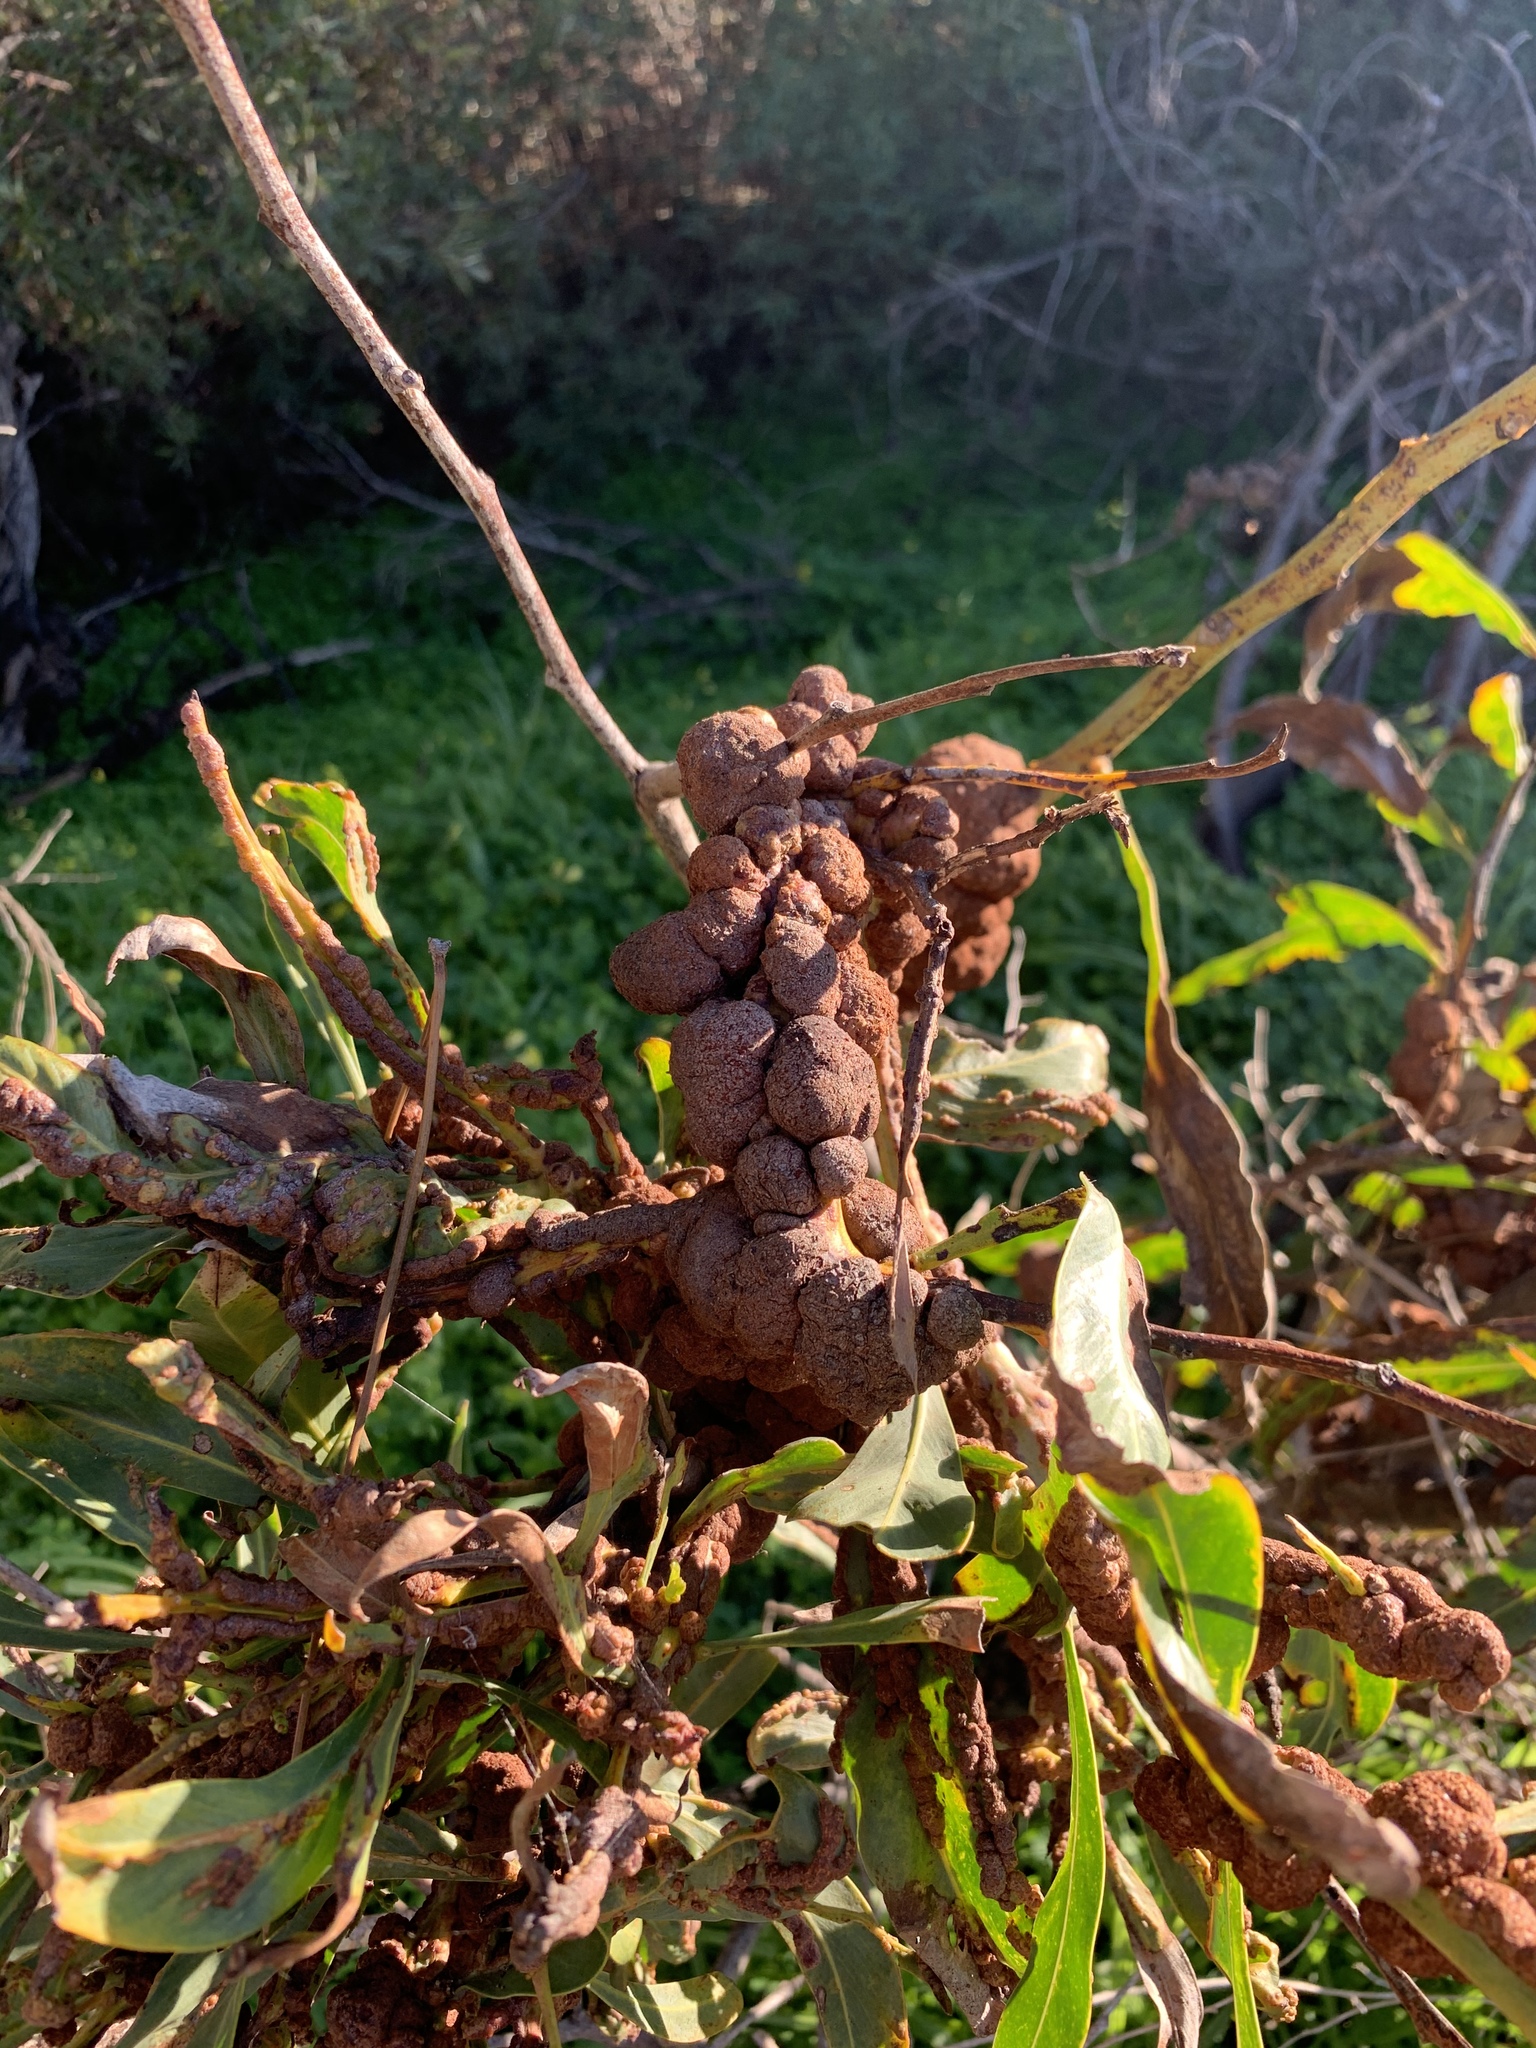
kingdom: Fungi
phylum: Basidiomycota
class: Pucciniomycetes
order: Pucciniales
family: Uromycladiaceae
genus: Uromycladium
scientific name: Uromycladium morrisii
